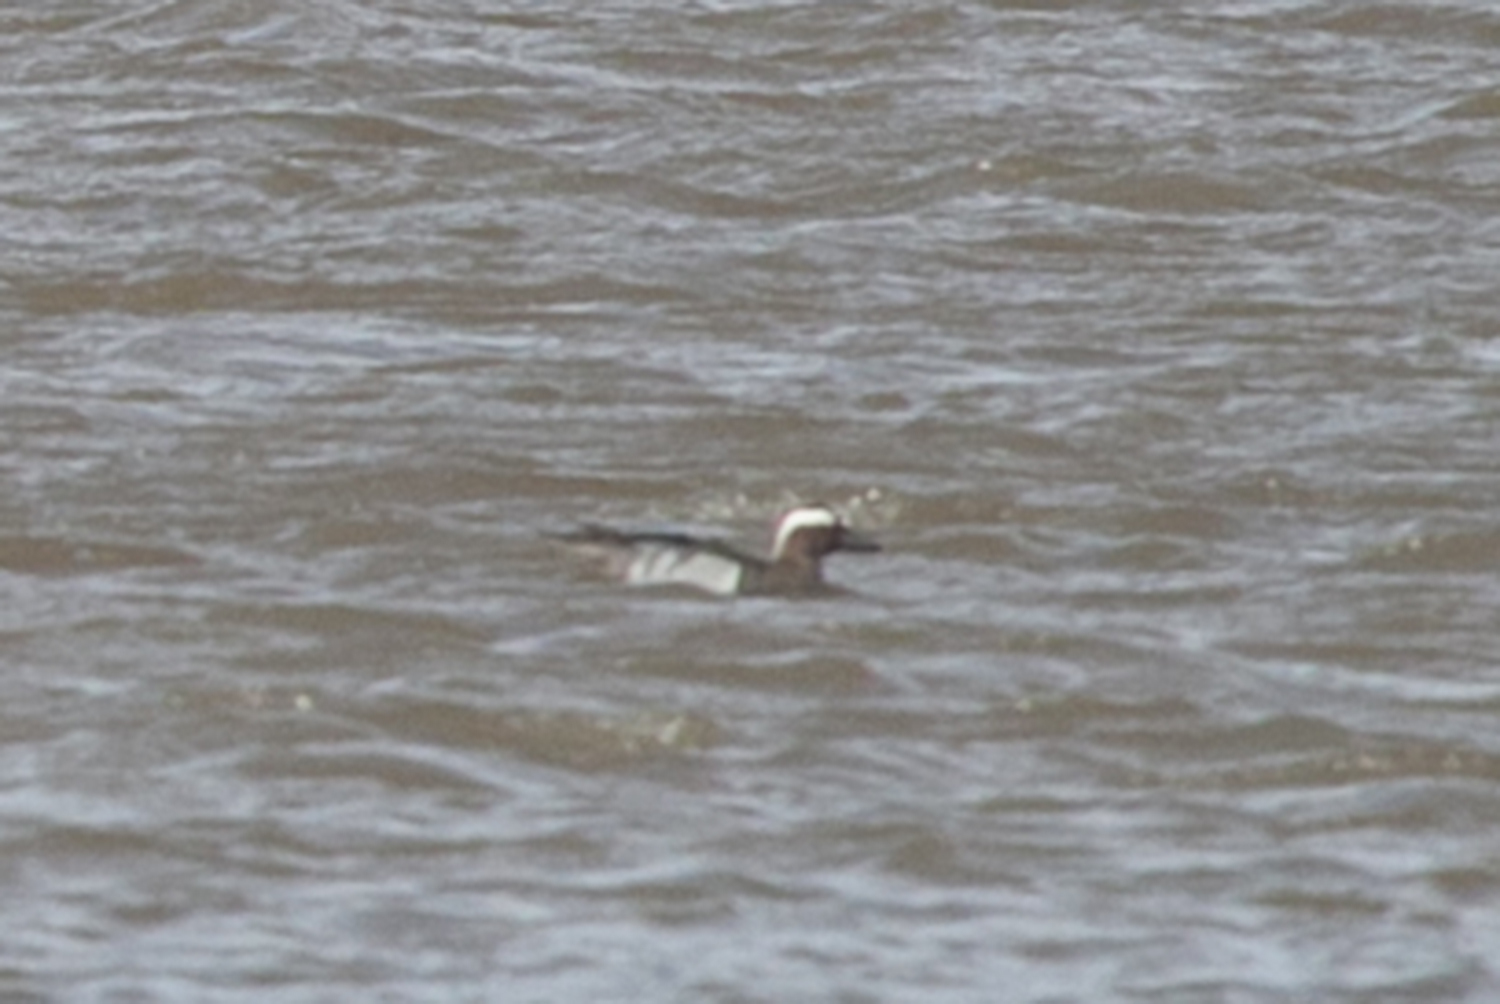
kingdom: Animalia
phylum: Chordata
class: Aves
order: Anseriformes
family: Anatidae
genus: Spatula
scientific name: Spatula querquedula
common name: Garganey
